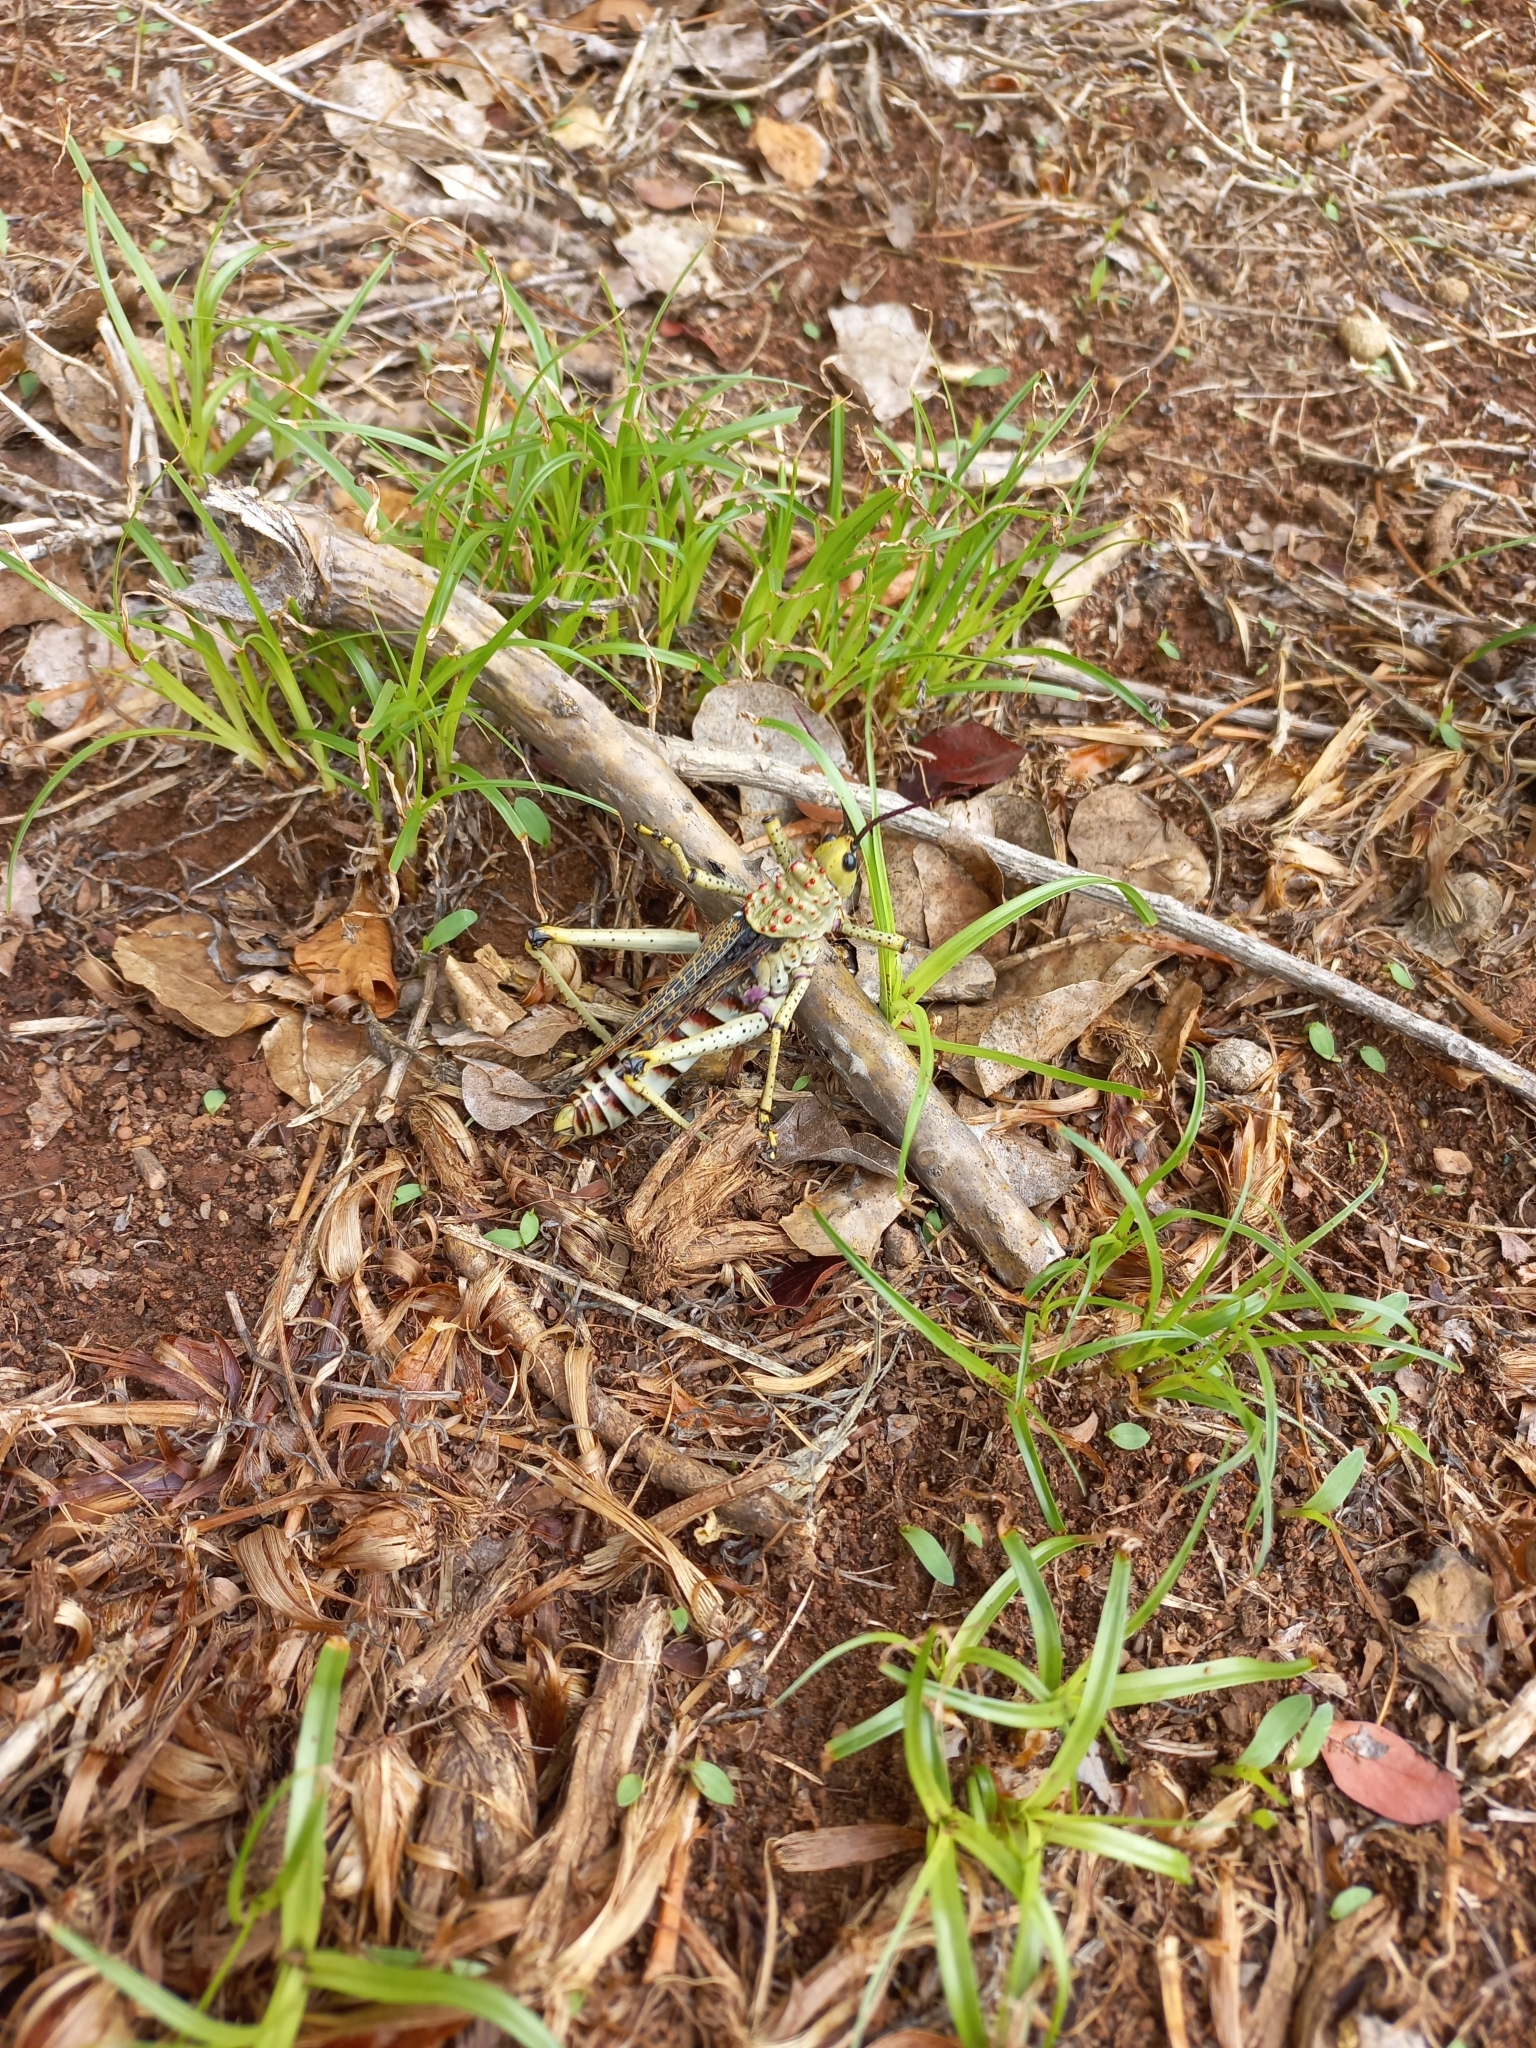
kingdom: Animalia
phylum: Arthropoda
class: Insecta
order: Orthoptera
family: Pyrgomorphidae
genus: Phymateus
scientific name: Phymateus baccatus
